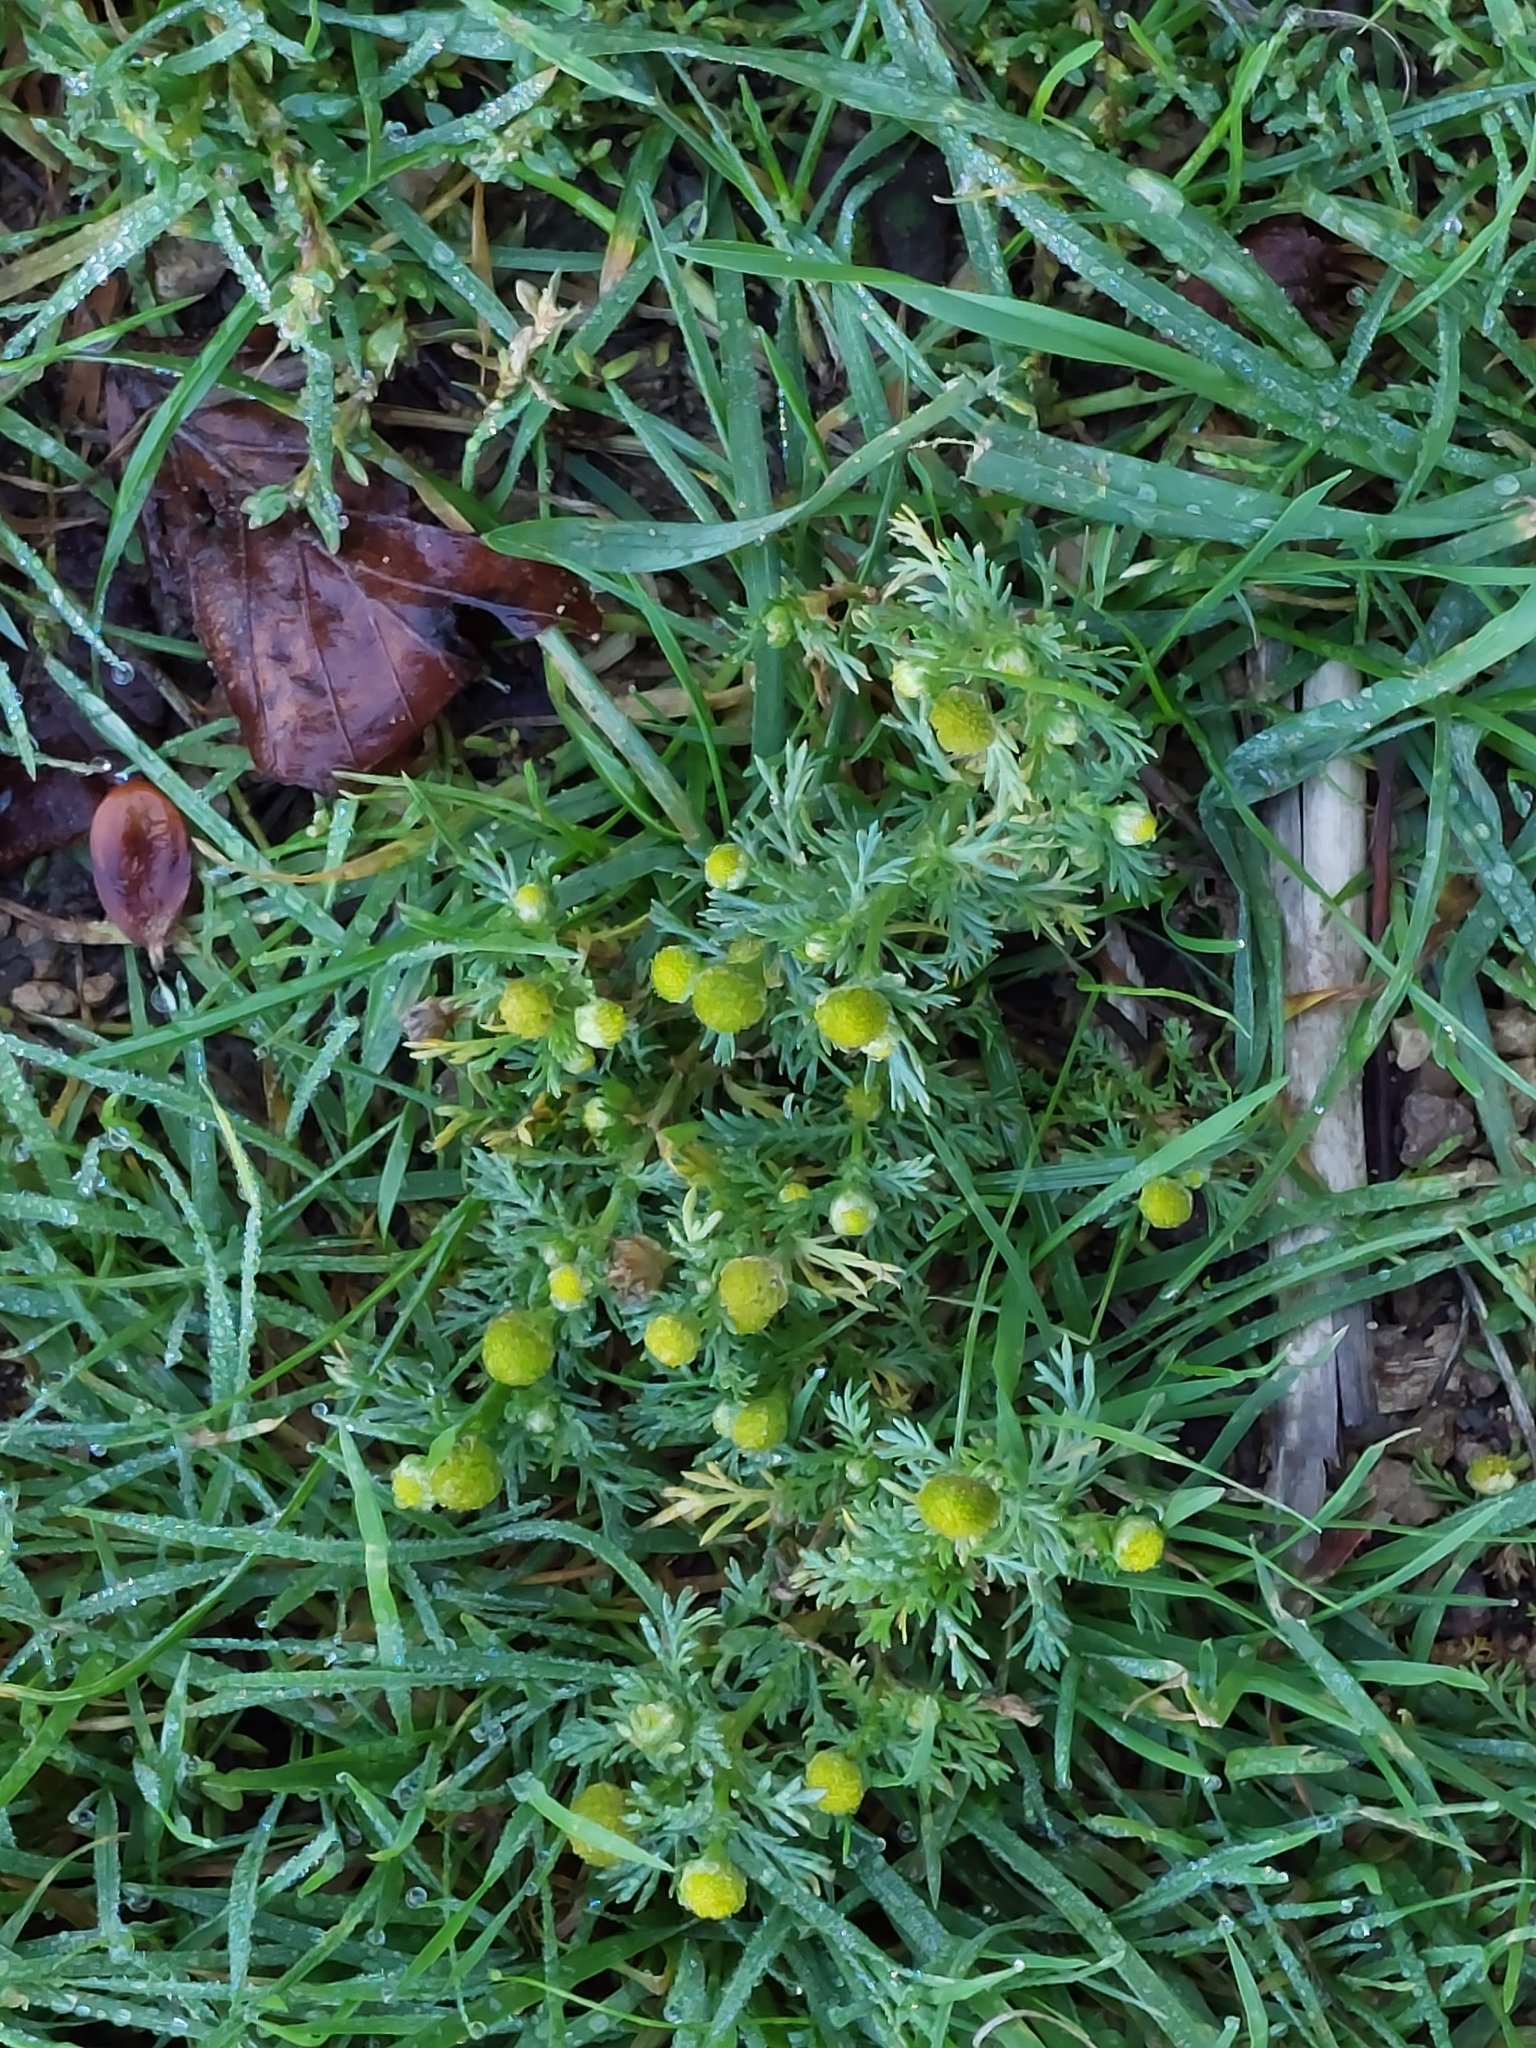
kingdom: Plantae
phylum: Tracheophyta
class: Magnoliopsida
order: Asterales
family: Asteraceae
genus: Matricaria
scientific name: Matricaria discoidea
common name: Disc mayweed
